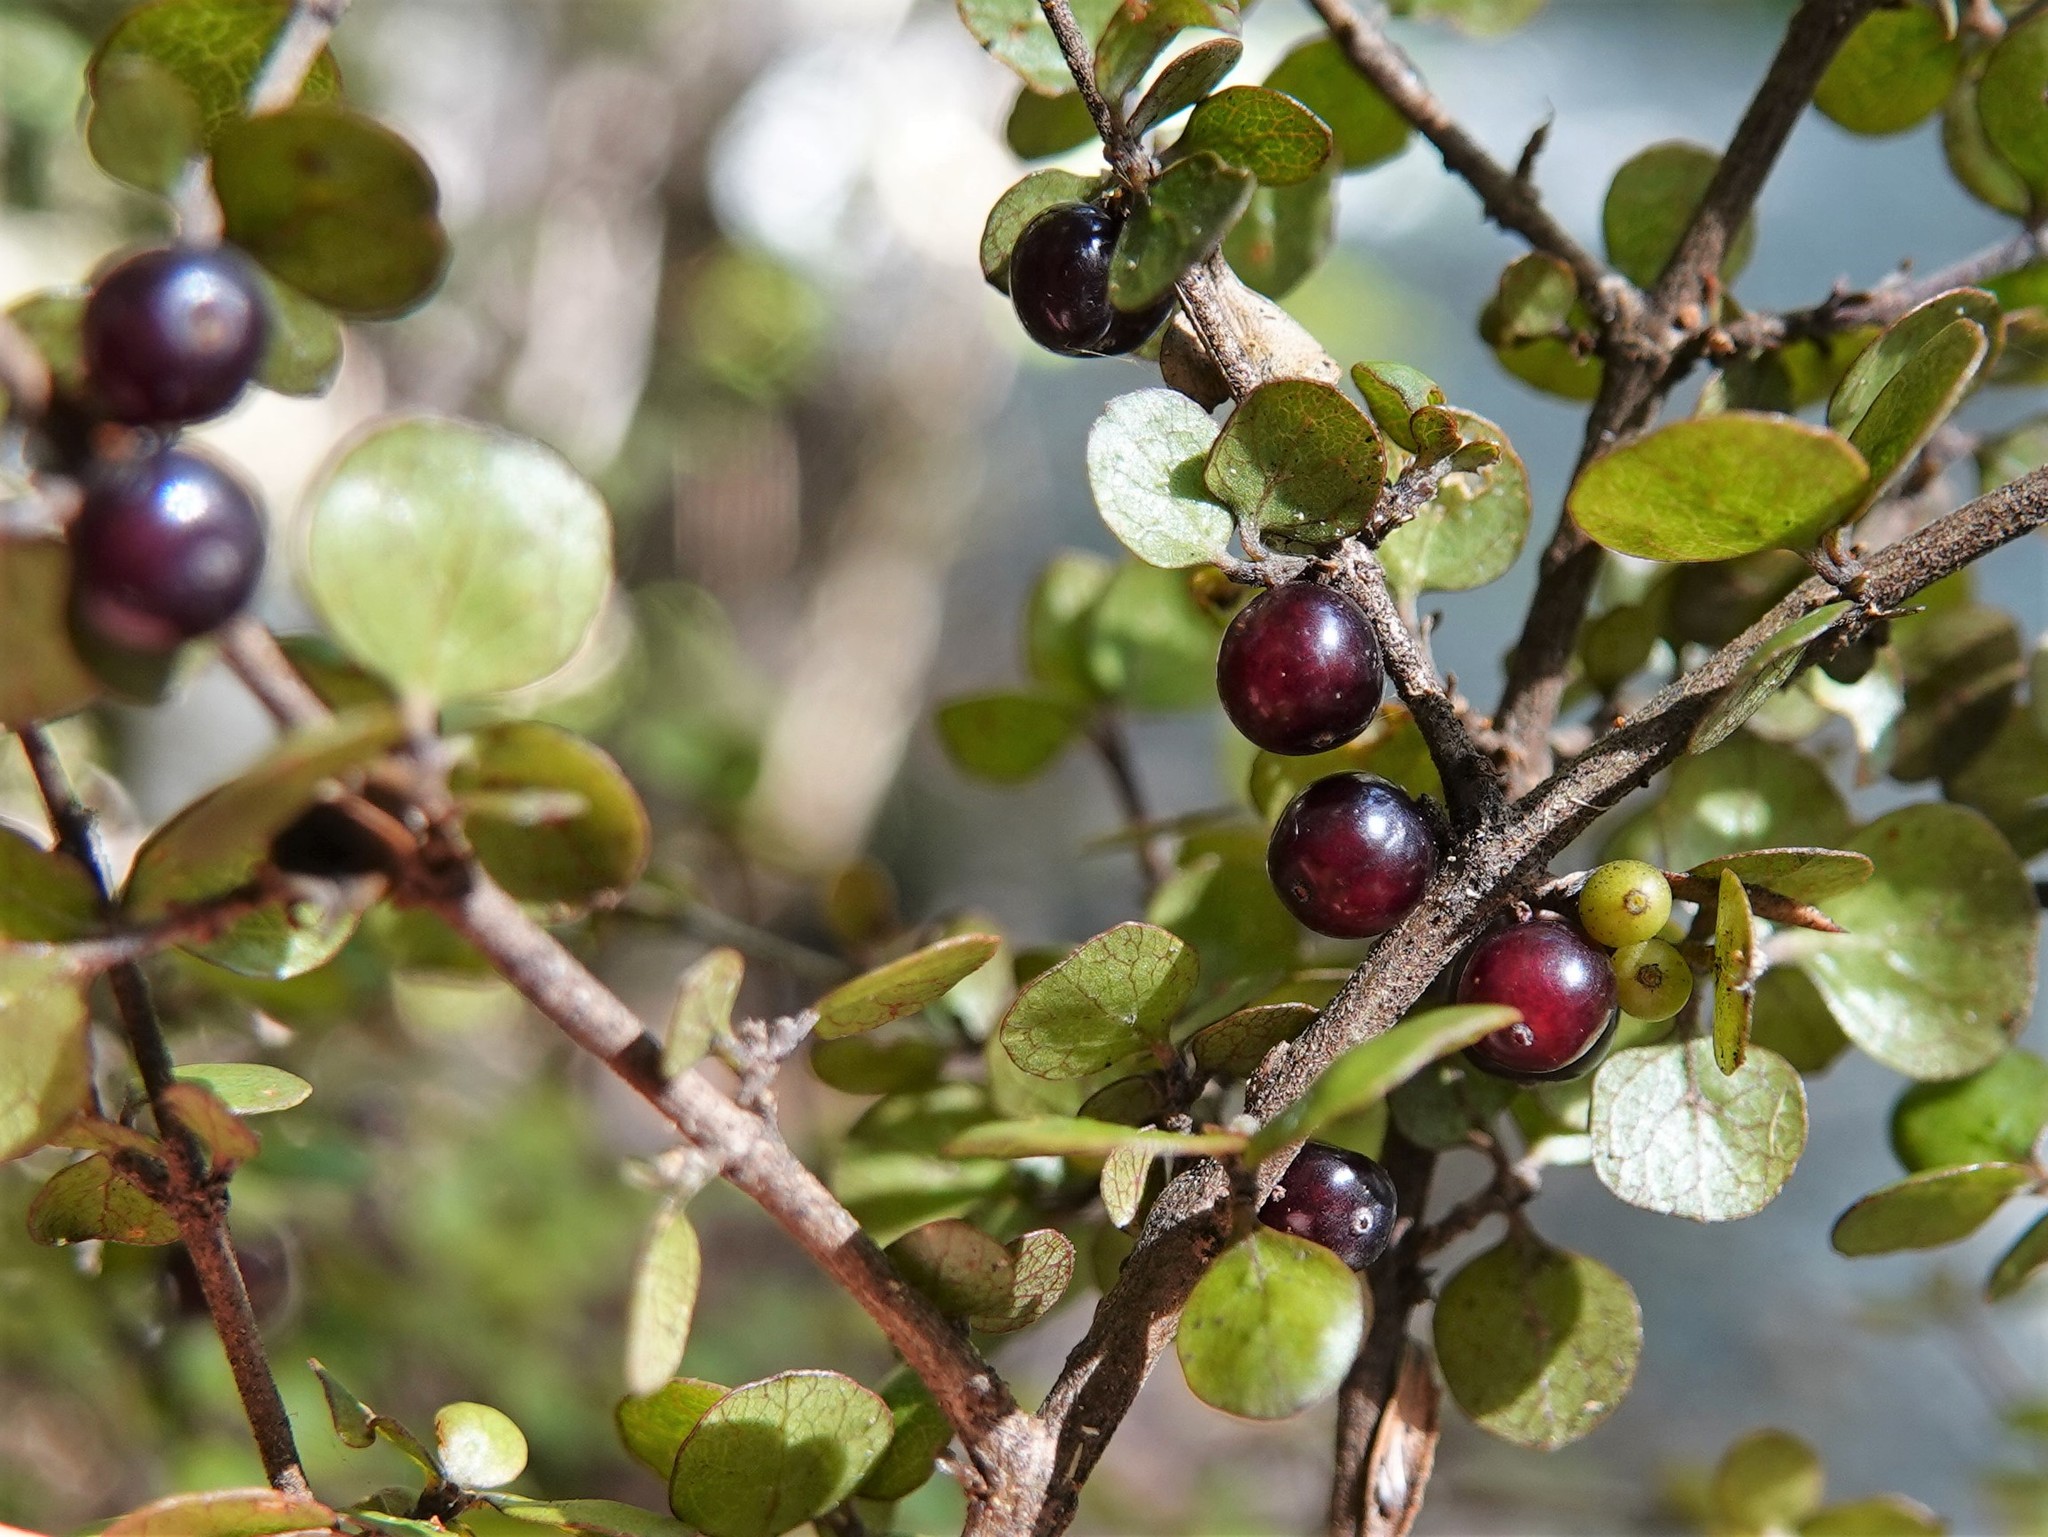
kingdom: Plantae
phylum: Tracheophyta
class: Magnoliopsida
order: Gentianales
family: Rubiaceae
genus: Coprosma
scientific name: Coprosma rhamnoides
